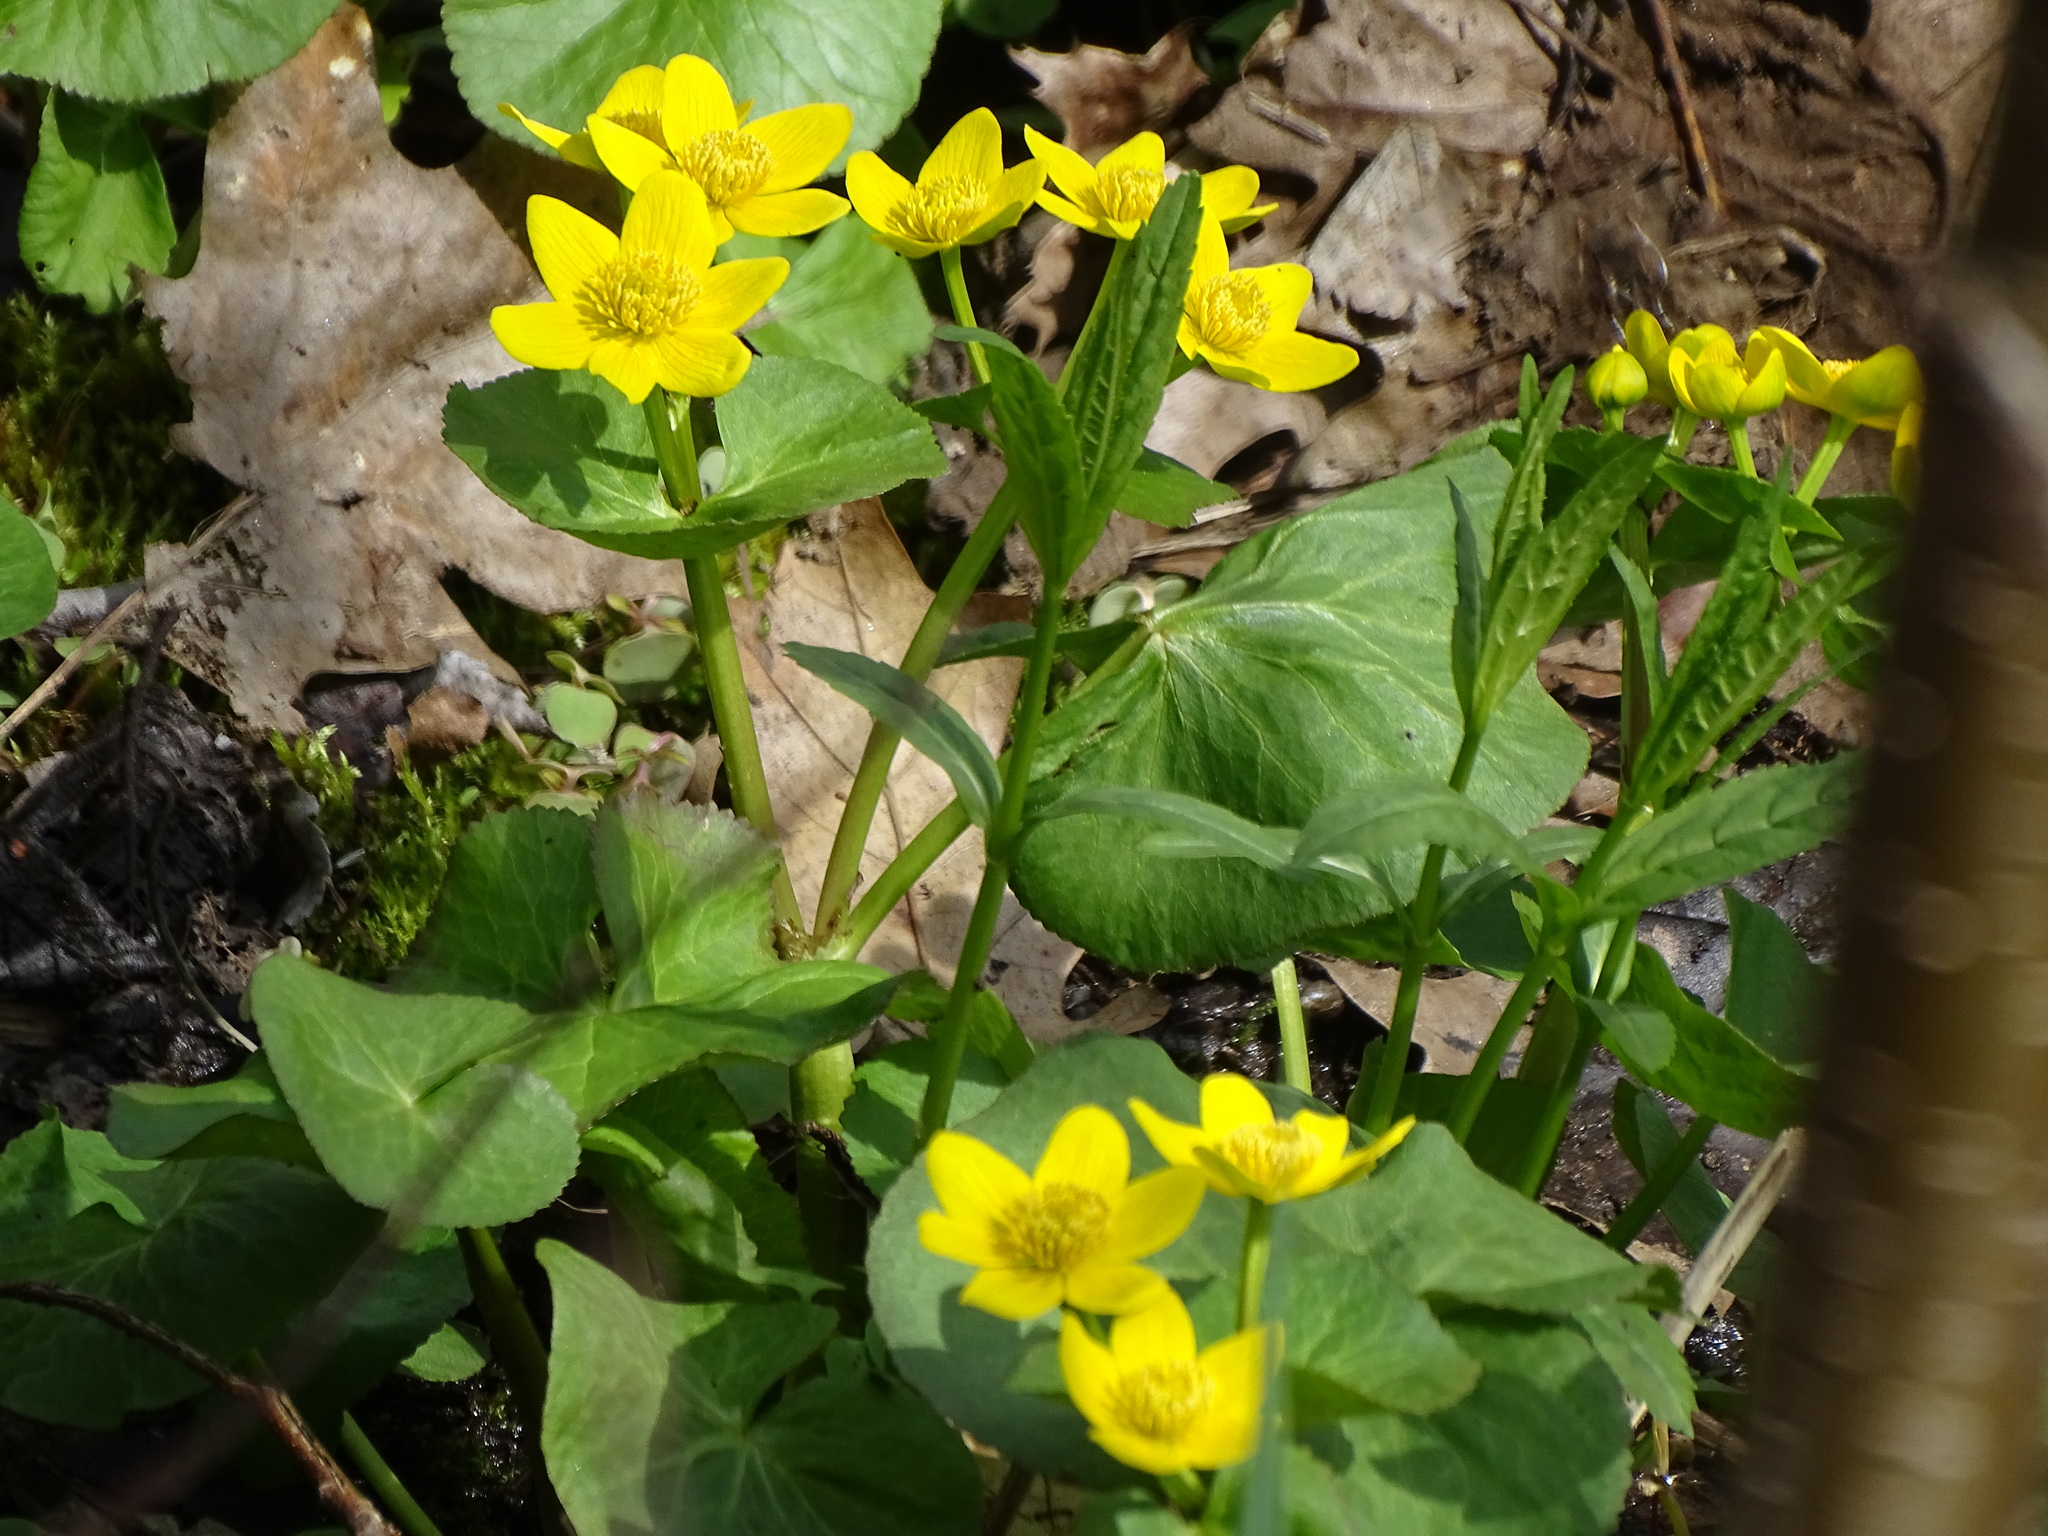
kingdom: Plantae
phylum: Tracheophyta
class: Magnoliopsida
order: Ranunculales
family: Ranunculaceae
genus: Caltha
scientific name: Caltha palustris
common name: Marsh marigold
